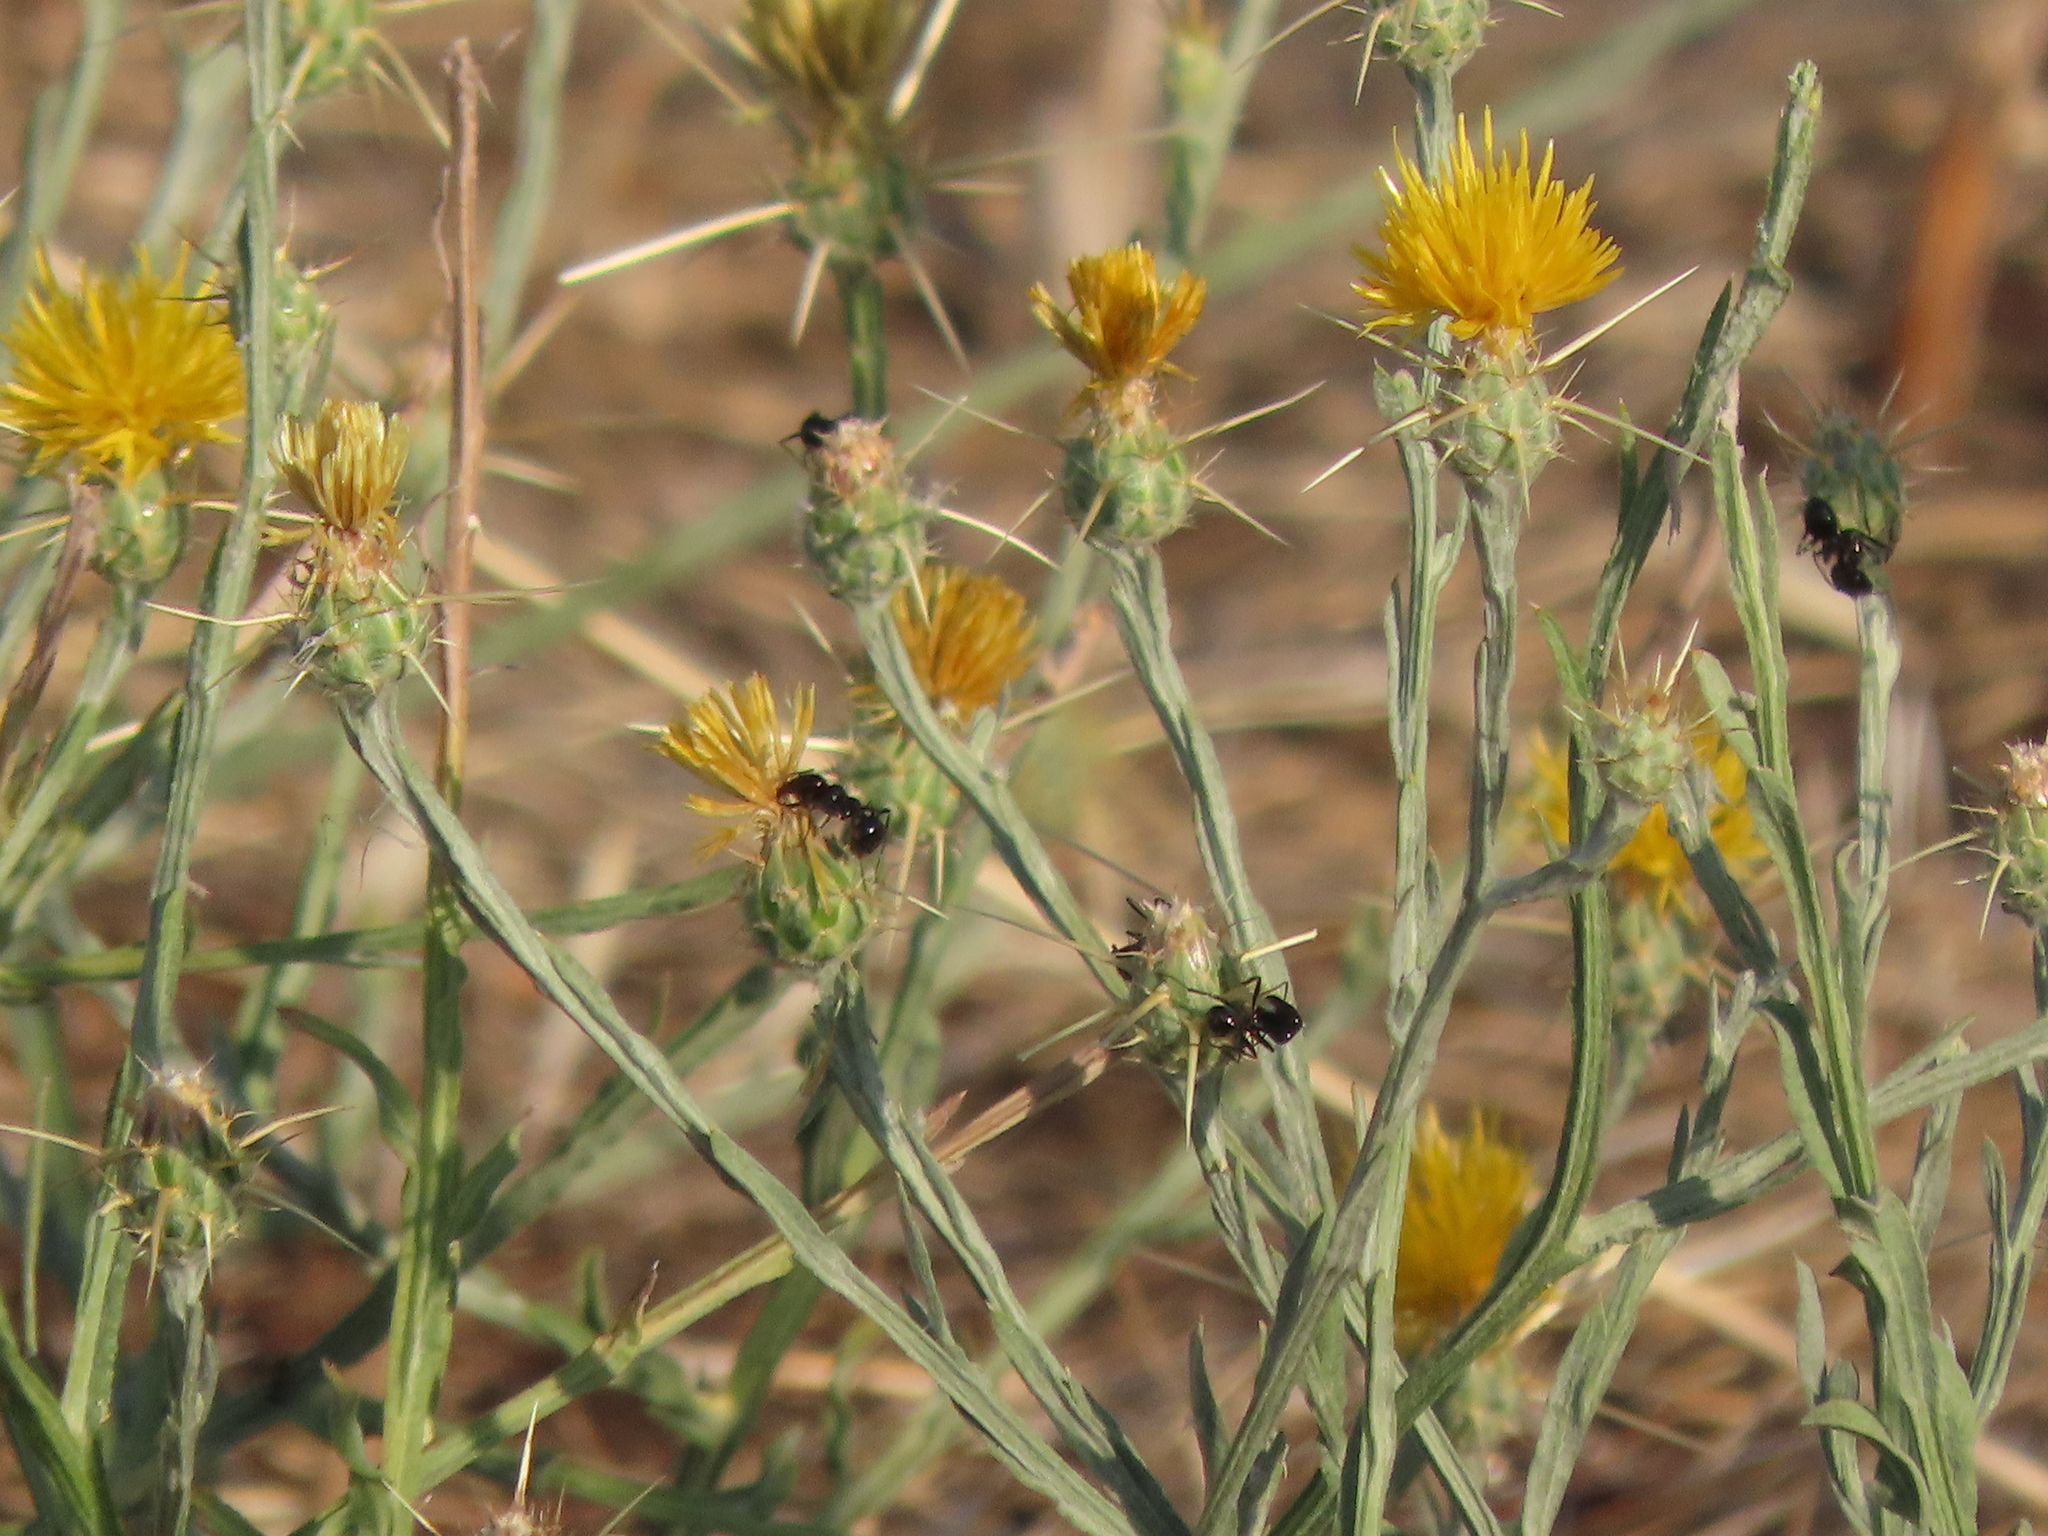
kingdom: Plantae
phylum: Tracheophyta
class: Magnoliopsida
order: Asterales
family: Asteraceae
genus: Centaurea
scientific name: Centaurea solstitialis
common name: Yellow star-thistle
